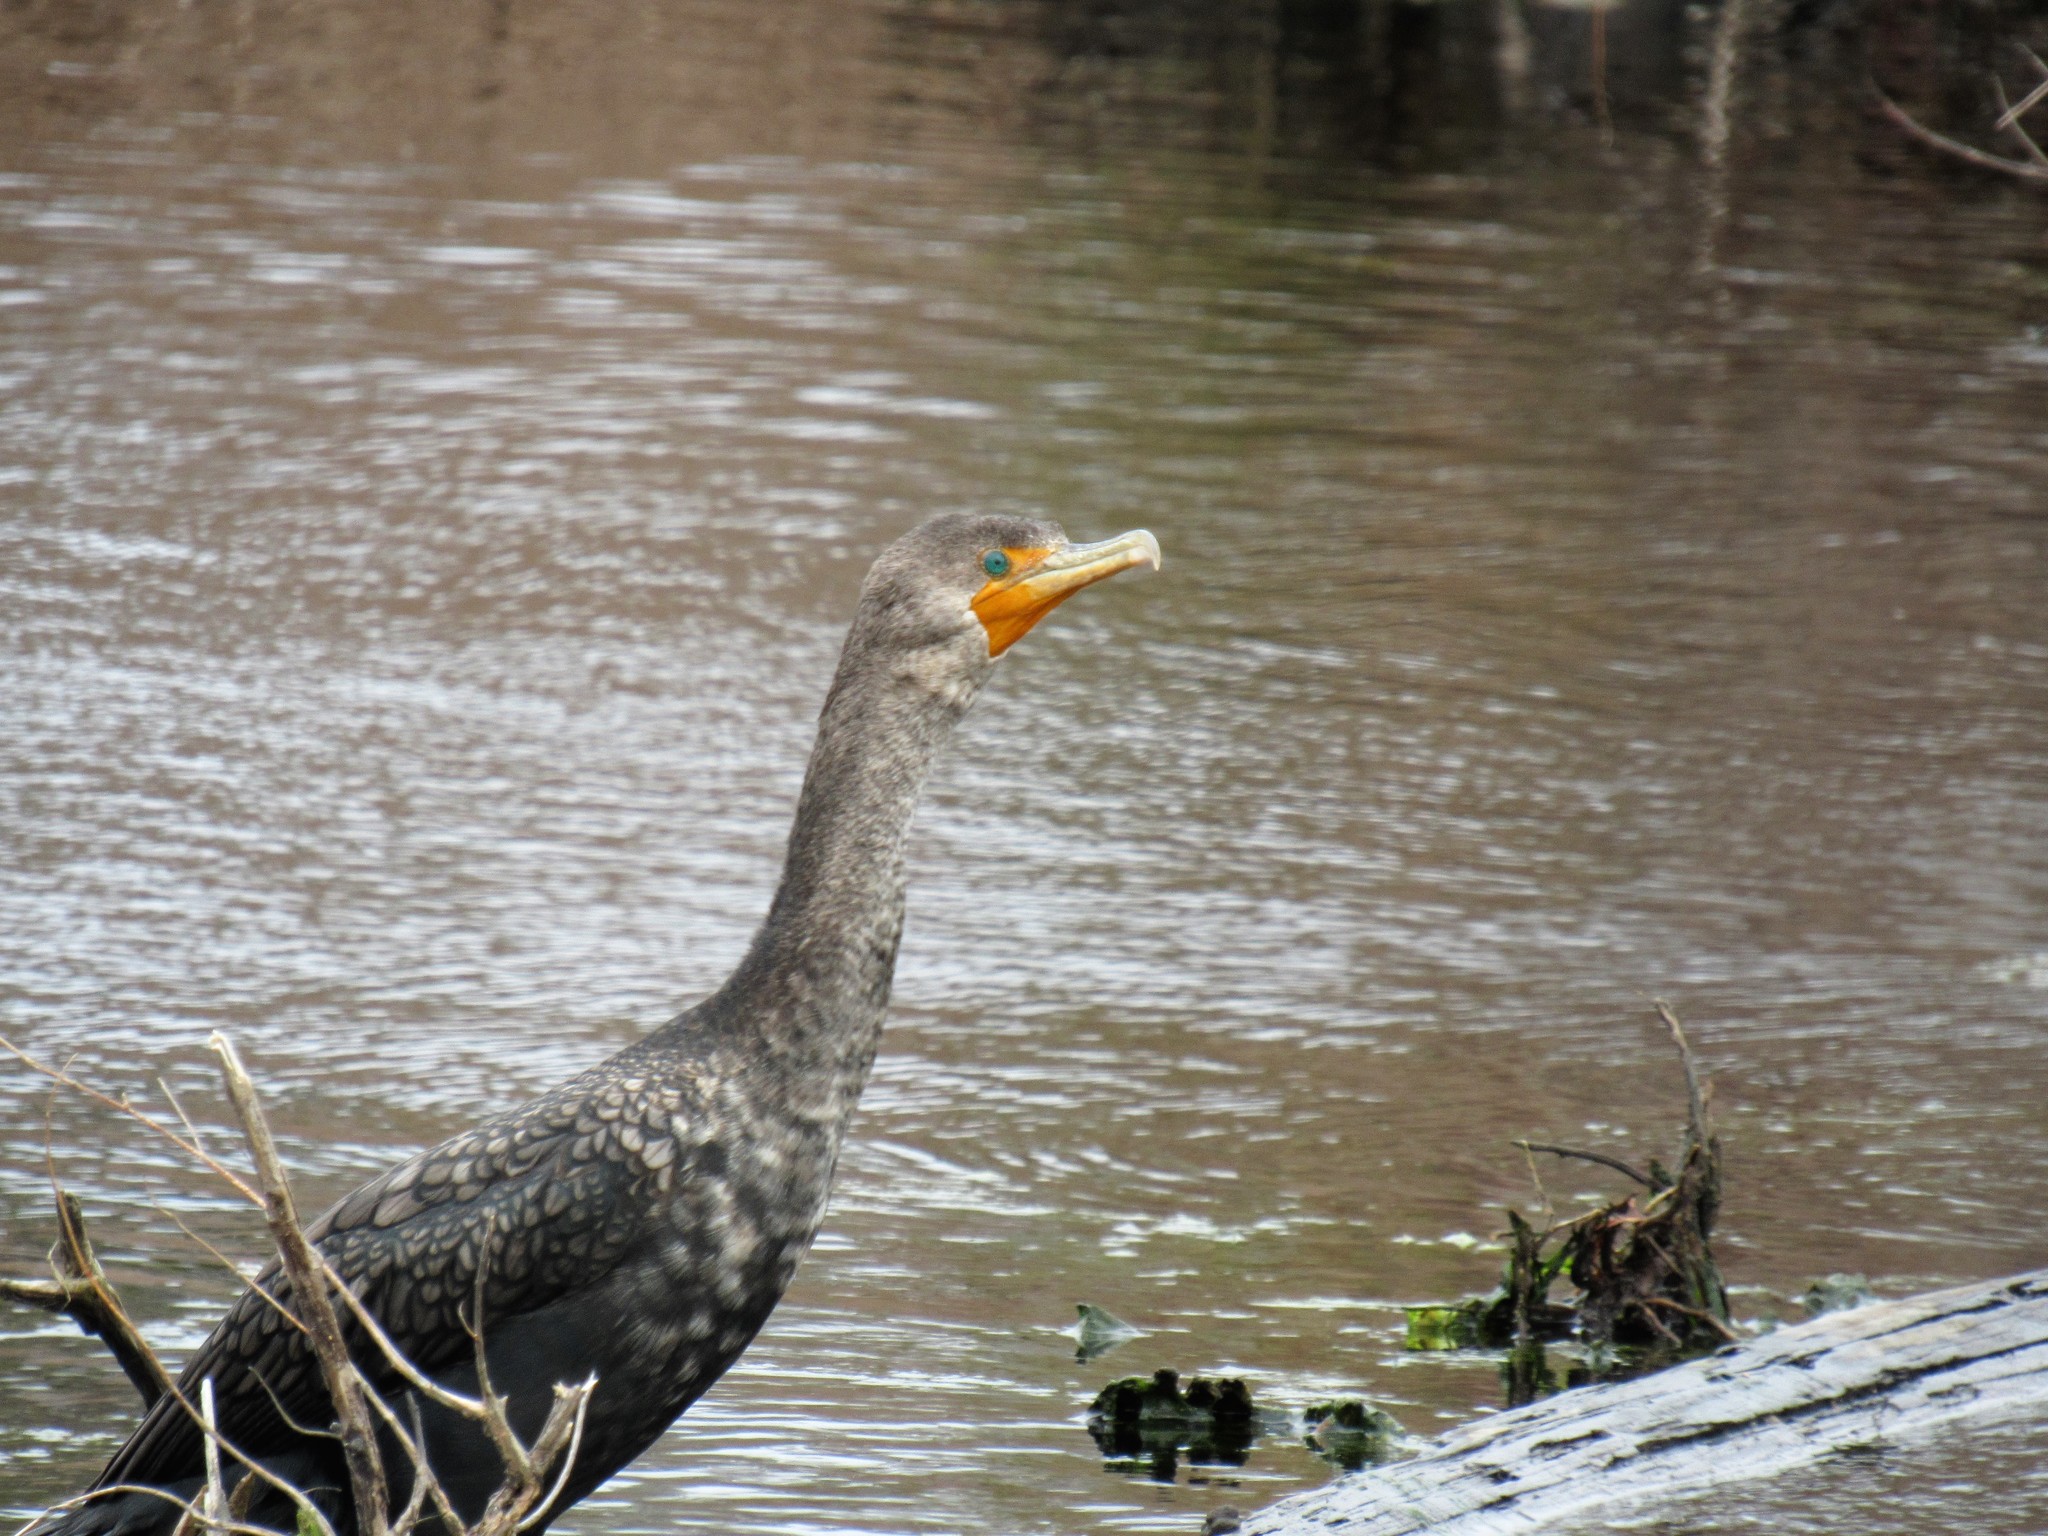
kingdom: Animalia
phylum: Chordata
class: Aves
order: Suliformes
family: Phalacrocoracidae
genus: Phalacrocorax
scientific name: Phalacrocorax auritus
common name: Double-crested cormorant
